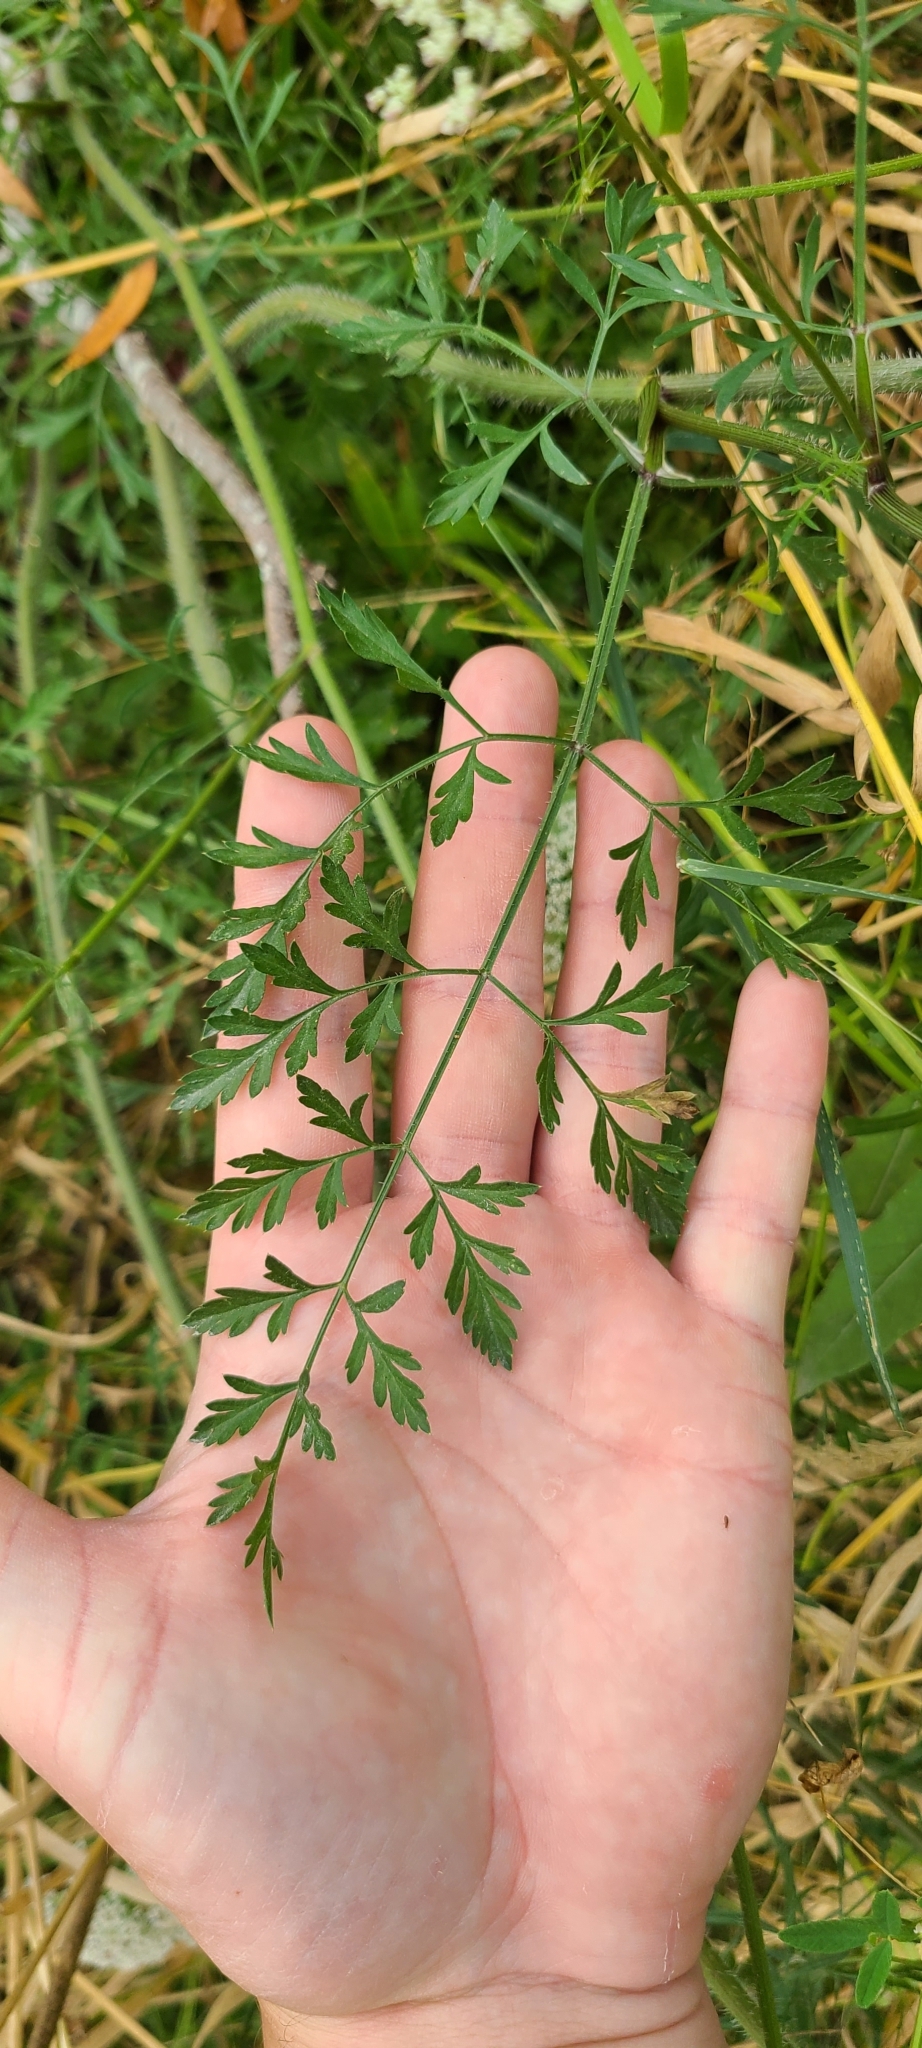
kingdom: Plantae
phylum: Tracheophyta
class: Magnoliopsida
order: Apiales
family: Apiaceae
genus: Daucus
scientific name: Daucus carota
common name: Wild carrot
